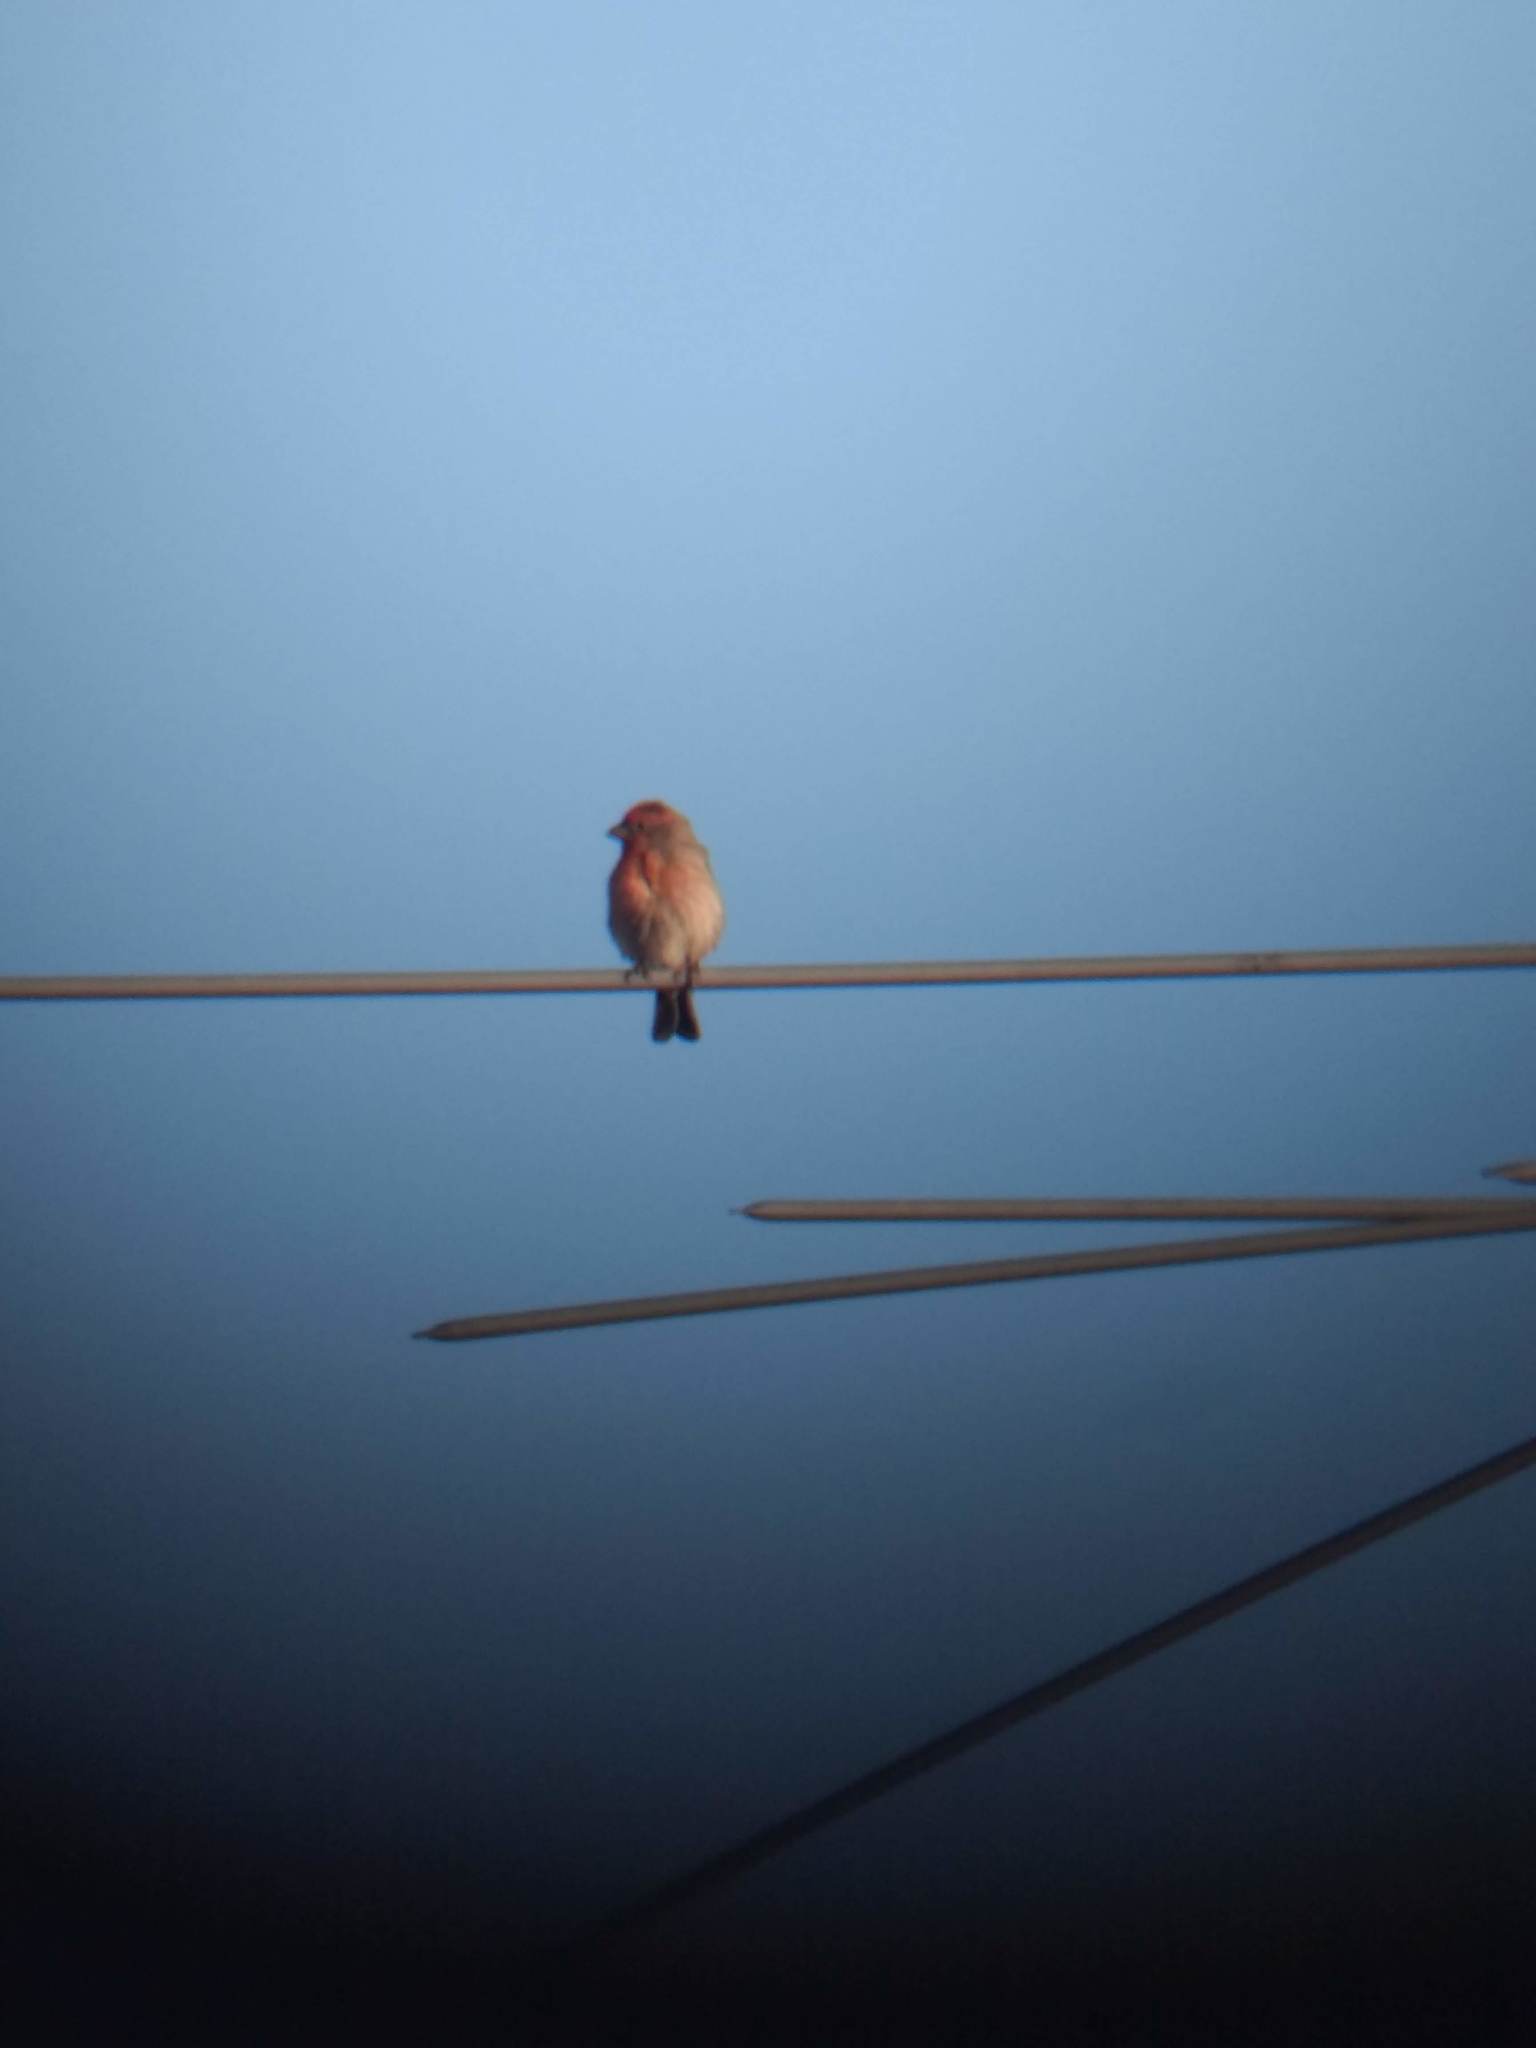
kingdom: Animalia
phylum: Chordata
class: Aves
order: Passeriformes
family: Fringillidae
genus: Haemorhous
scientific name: Haemorhous mexicanus
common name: House finch
